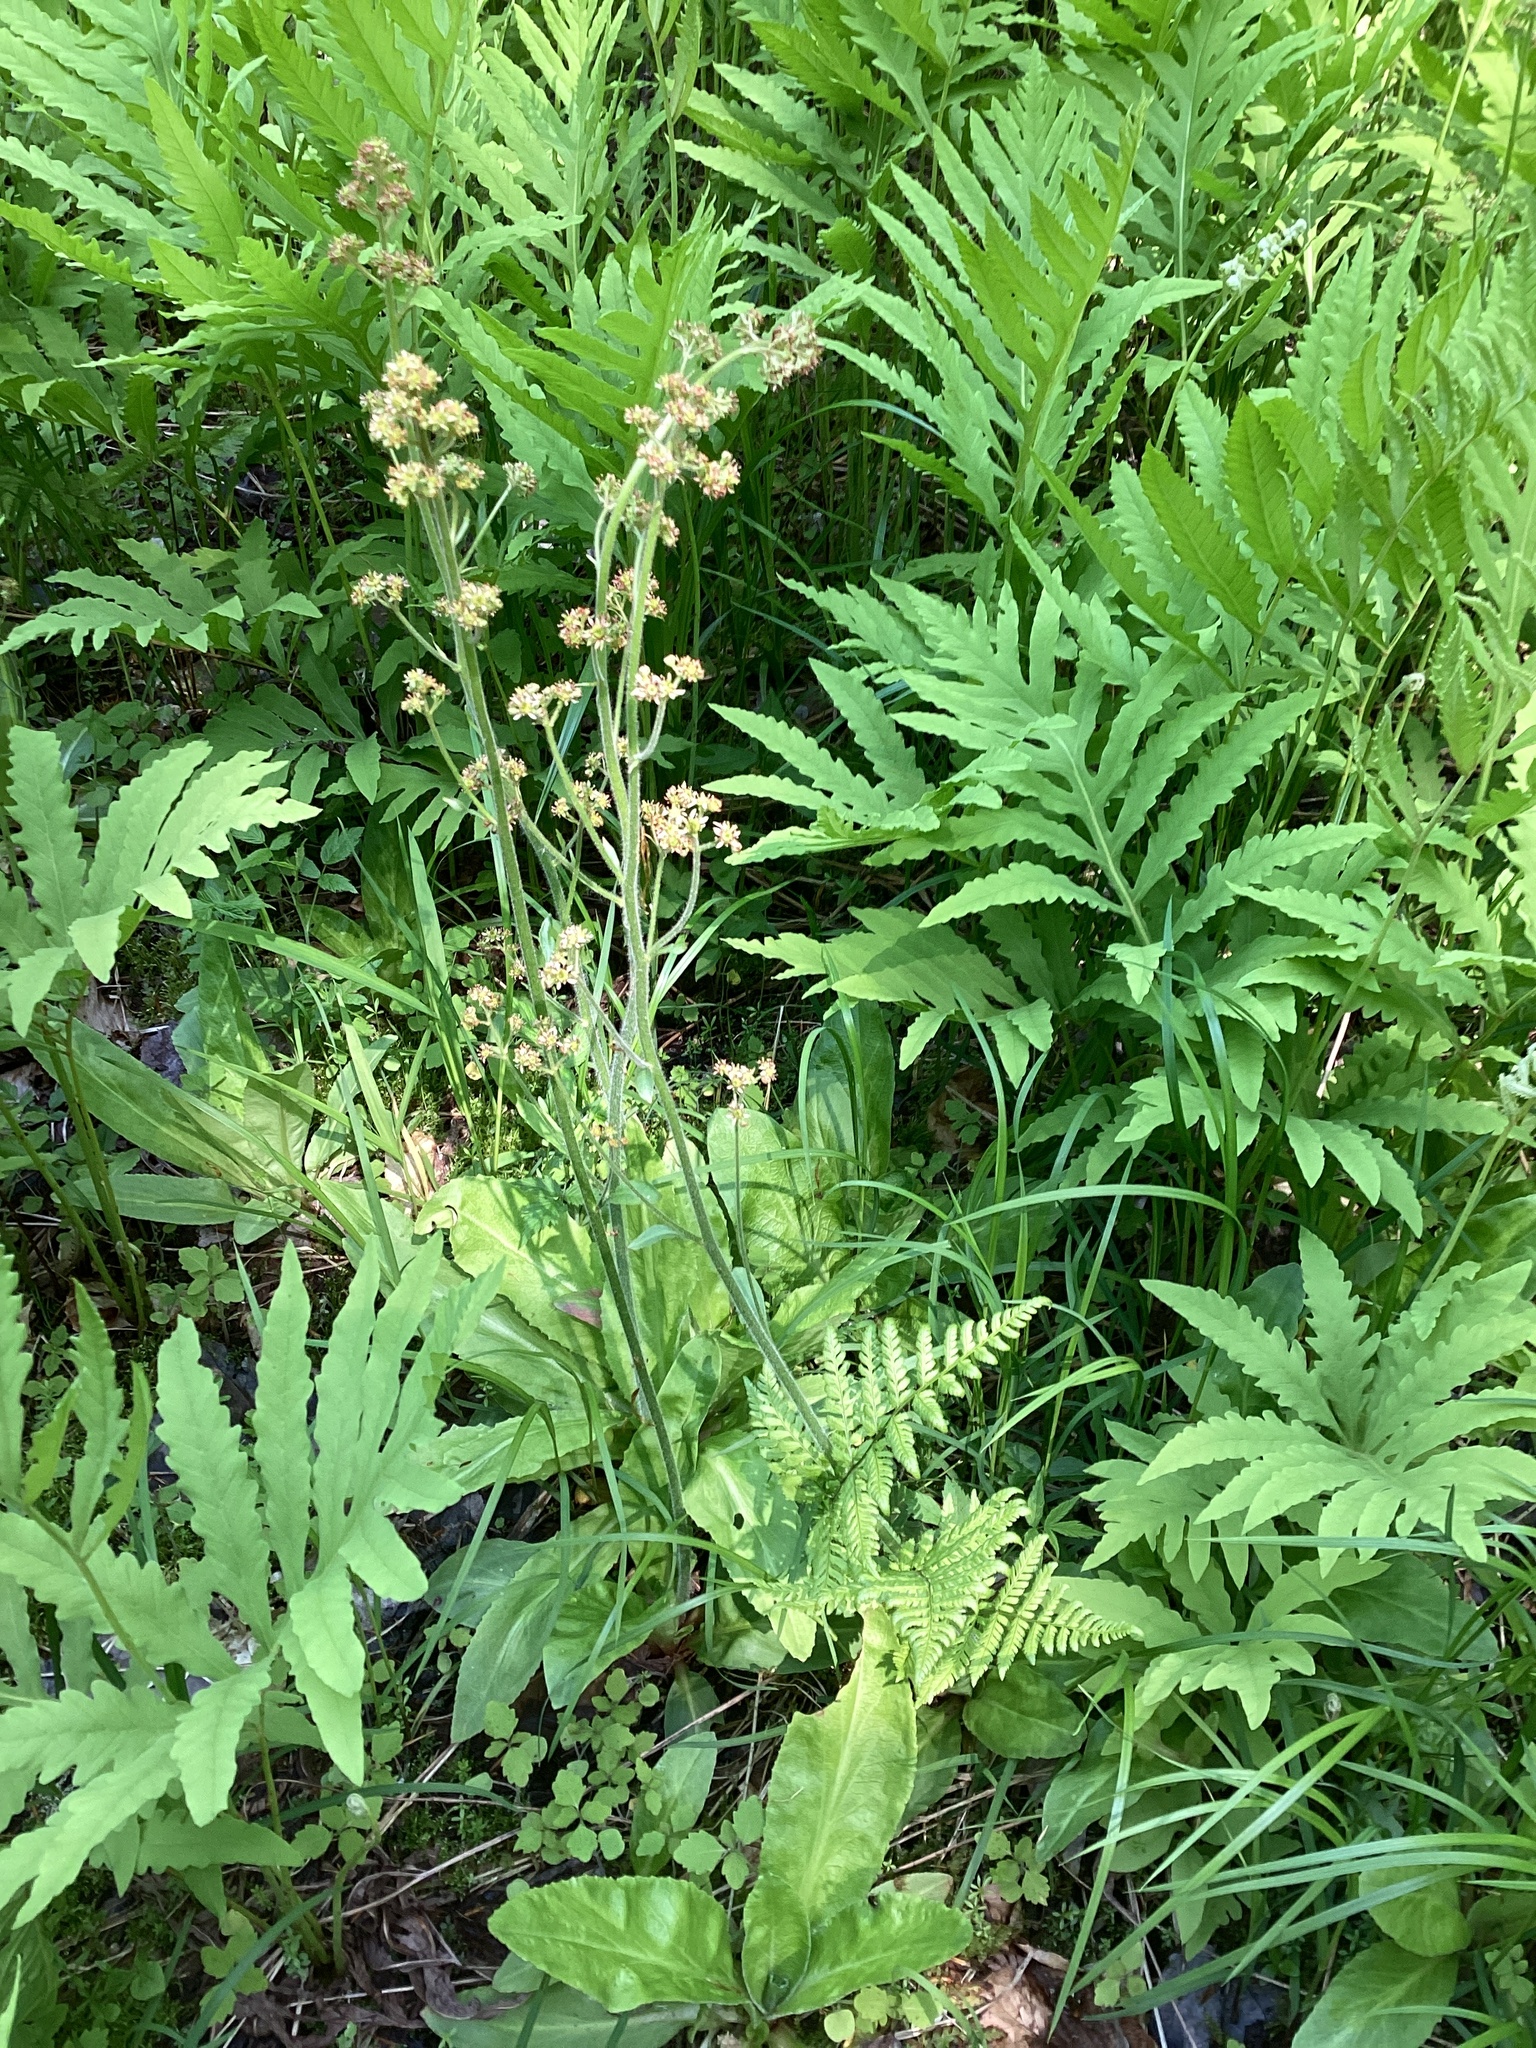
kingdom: Plantae
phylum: Tracheophyta
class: Magnoliopsida
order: Saxifragales
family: Saxifragaceae
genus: Micranthes
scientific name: Micranthes pensylvanica
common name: Marsh saxifrage
